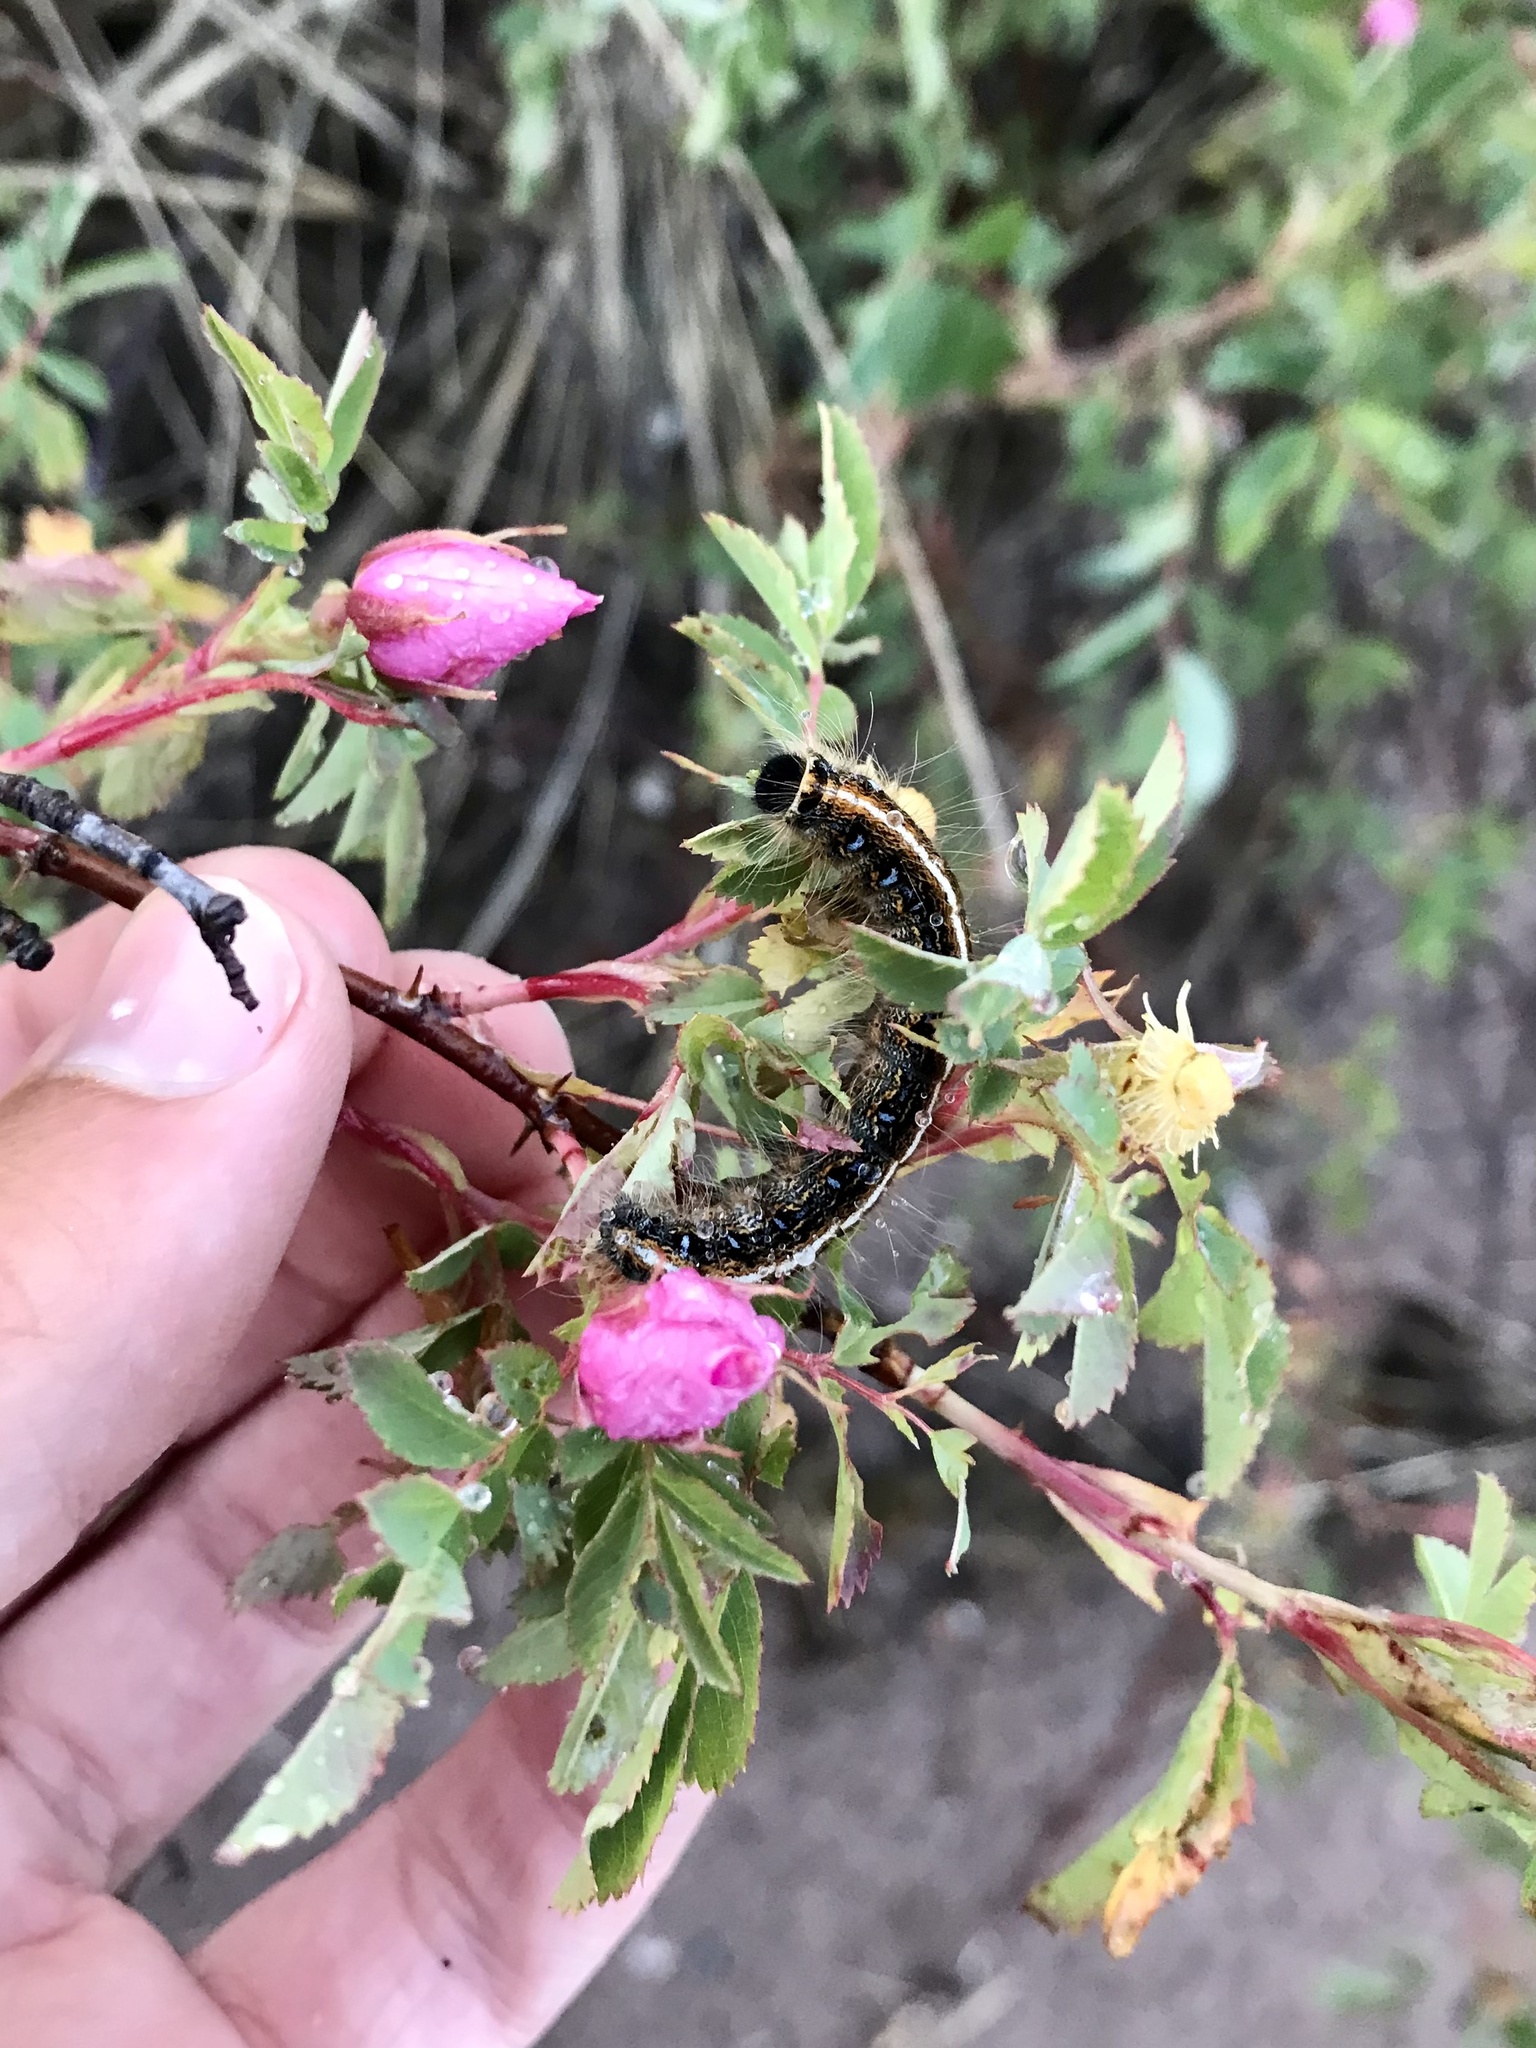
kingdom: Animalia
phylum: Arthropoda
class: Insecta
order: Lepidoptera
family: Lasiocampidae
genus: Malacosoma
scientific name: Malacosoma americana
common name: Eastern tent caterpillar moth
